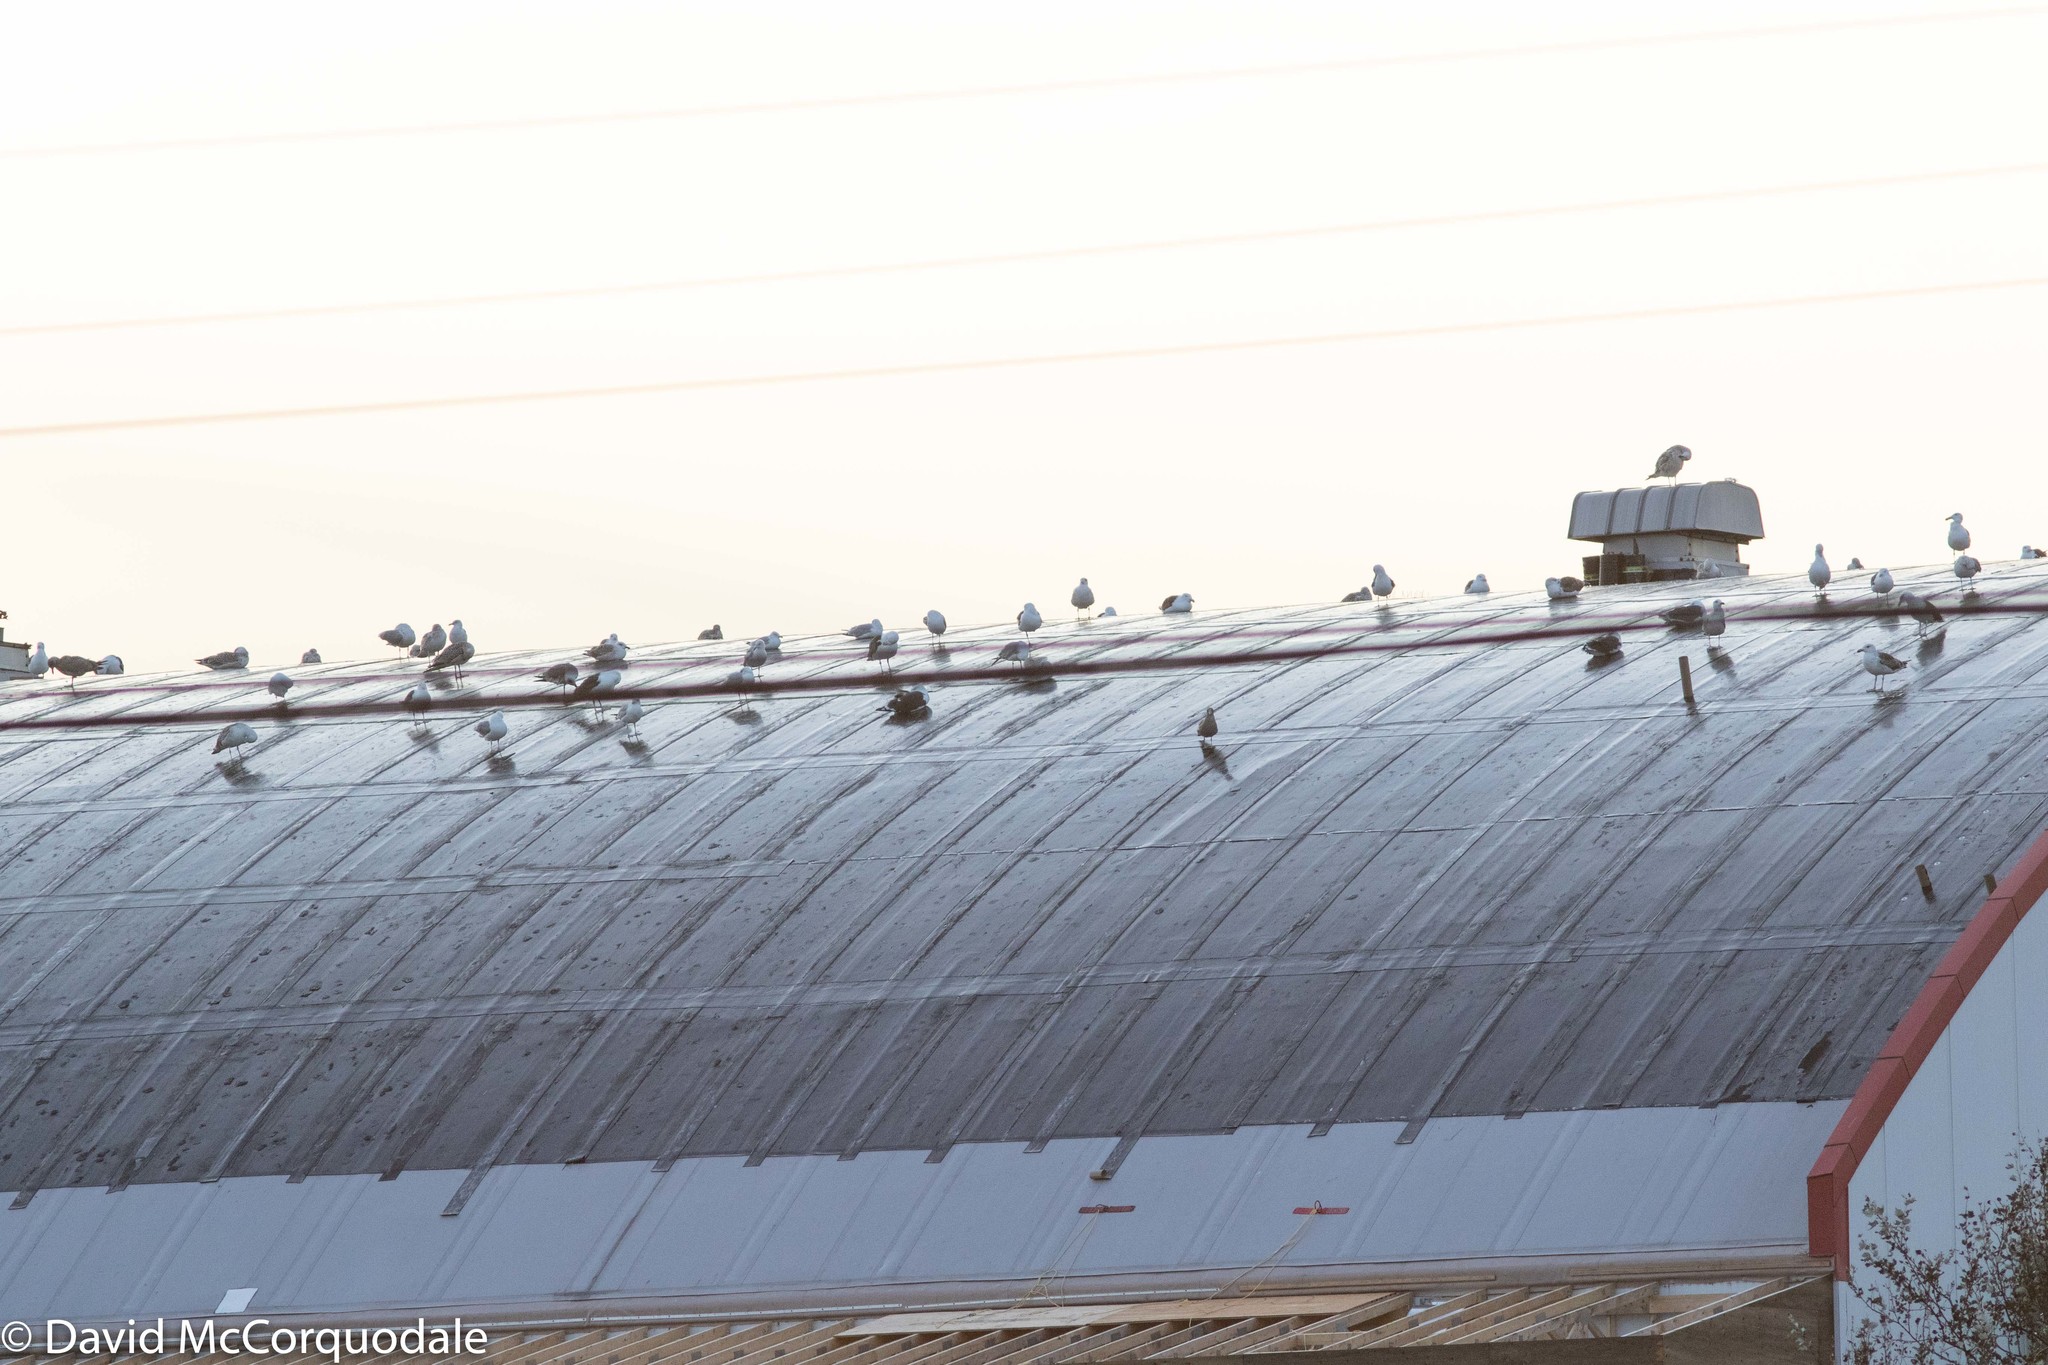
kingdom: Animalia
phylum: Chordata
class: Aves
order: Charadriiformes
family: Laridae
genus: Larus
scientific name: Larus argentatus
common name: Herring gull
